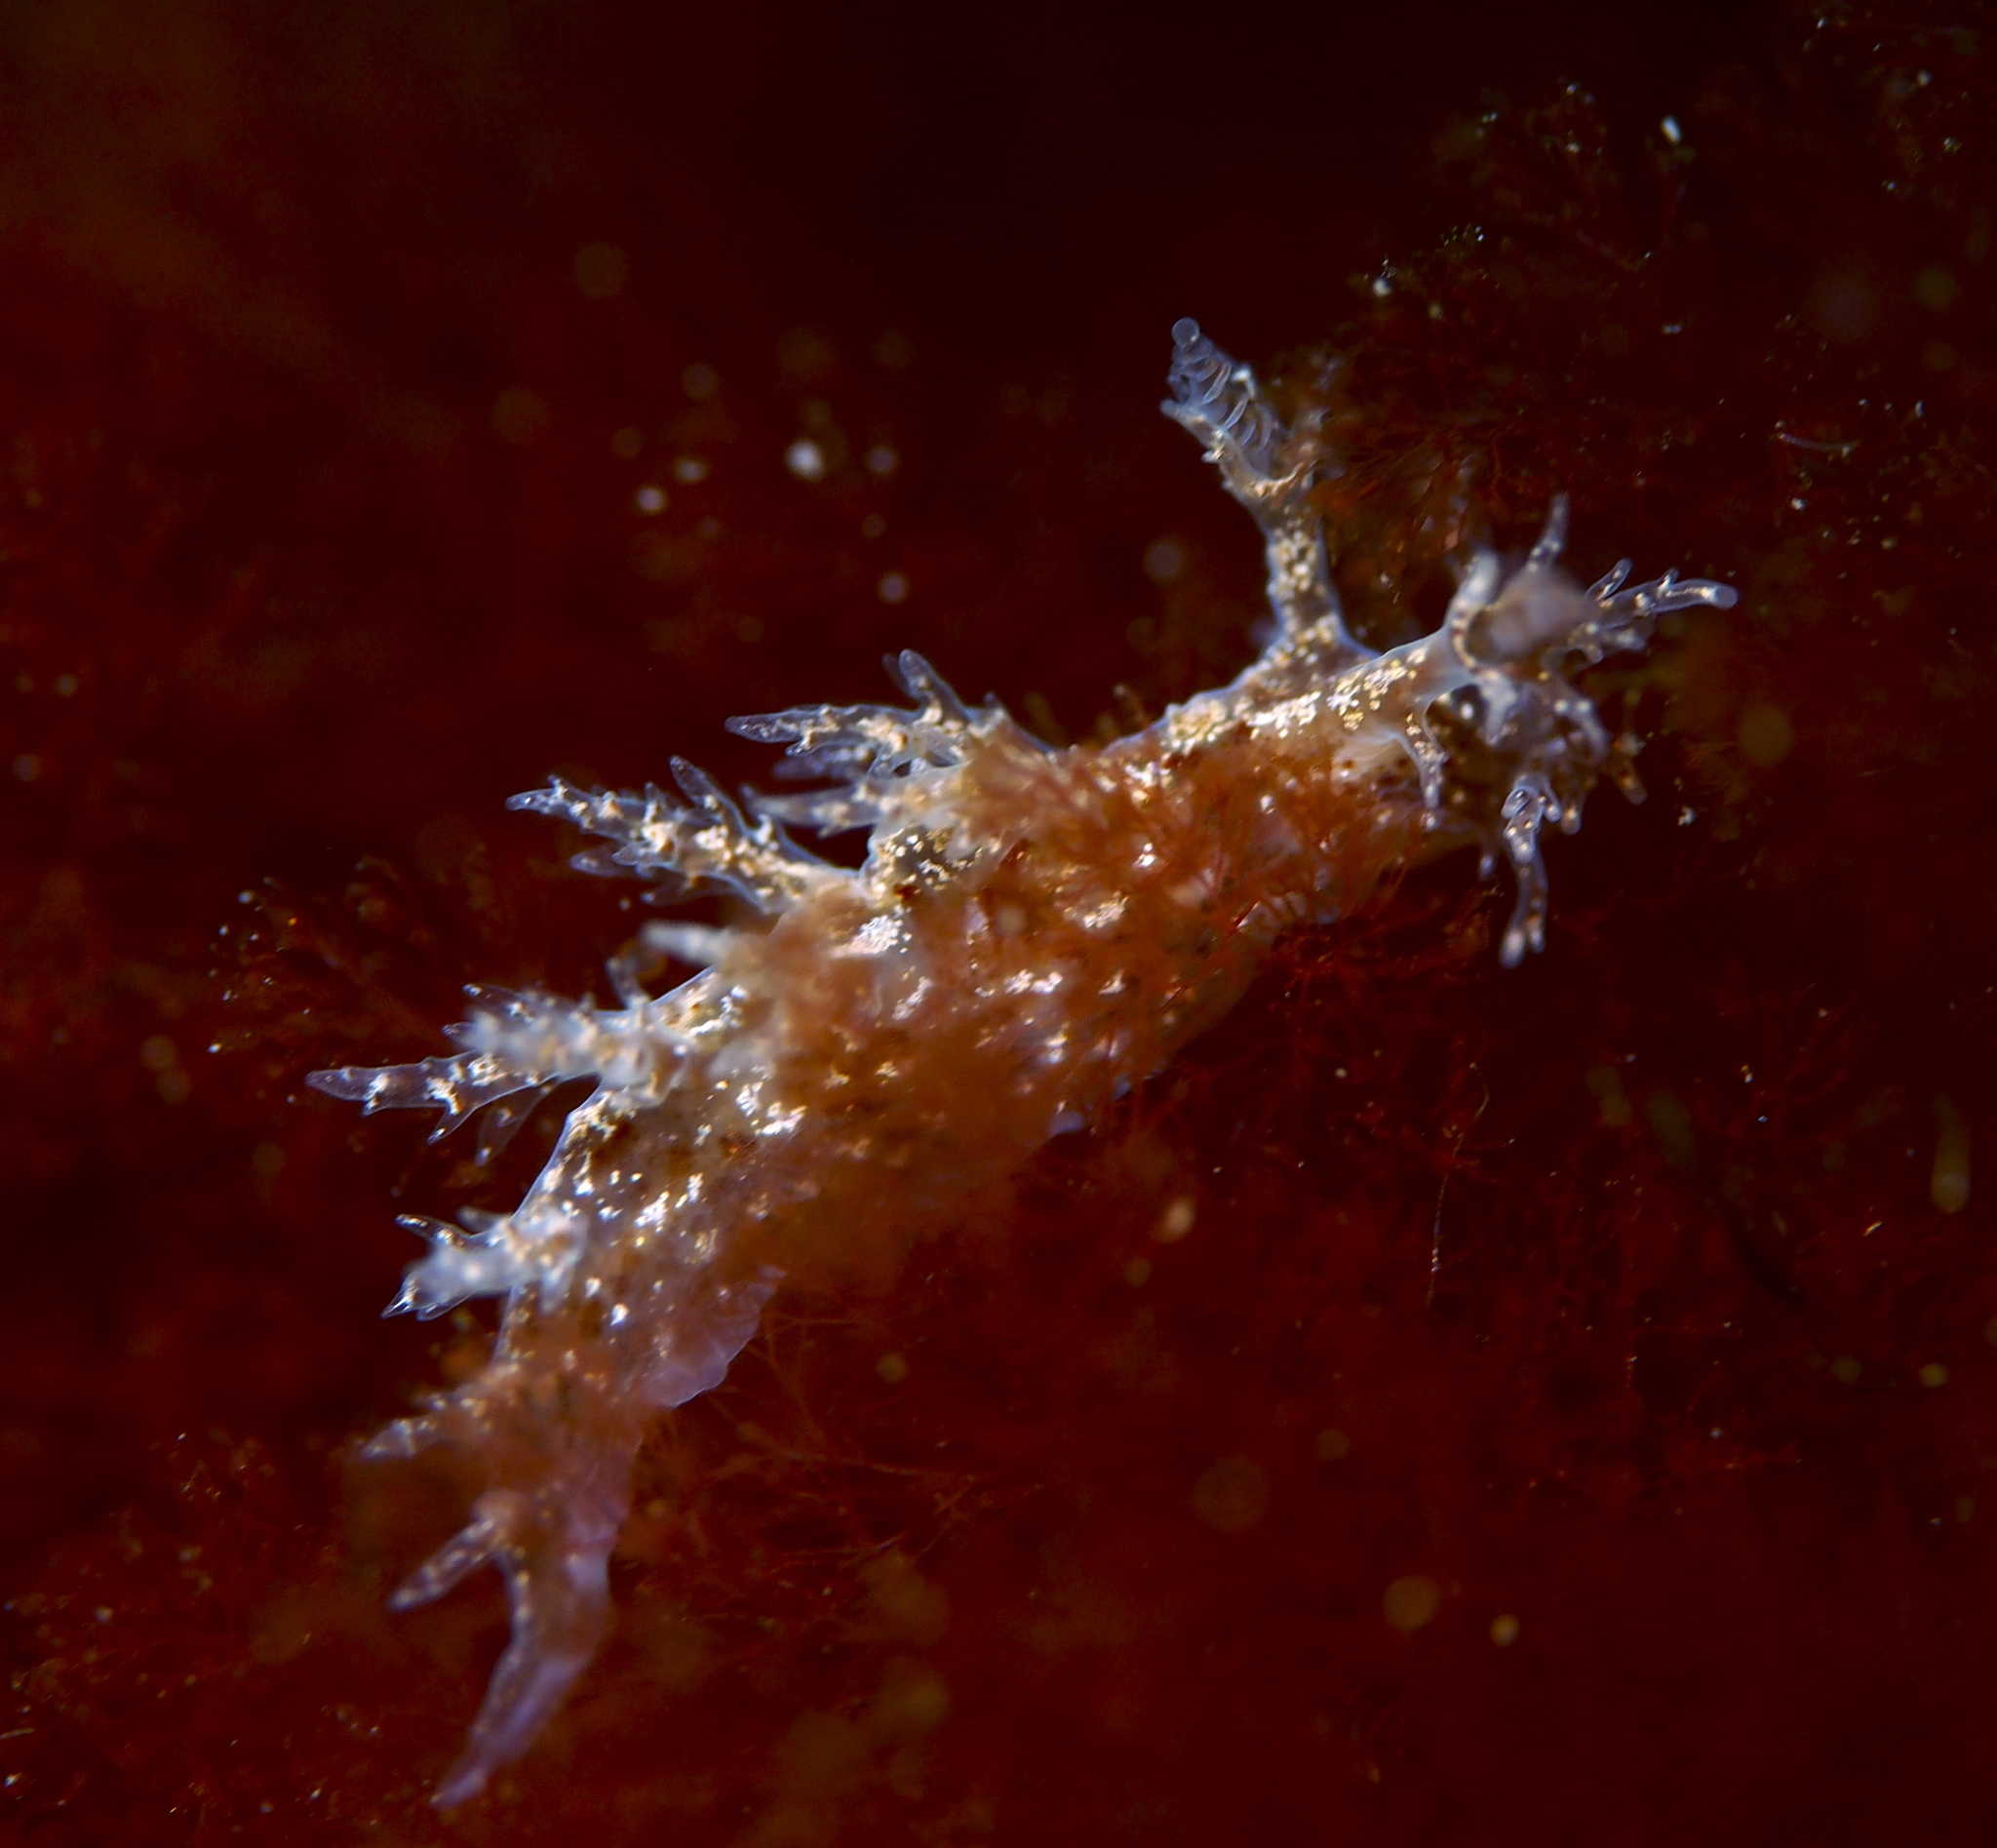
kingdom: Animalia
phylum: Mollusca
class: Gastropoda
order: Nudibranchia
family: Dendronotidae
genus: Dendronotus
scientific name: Dendronotus frondosus
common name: Bushy-backed nudibranch
